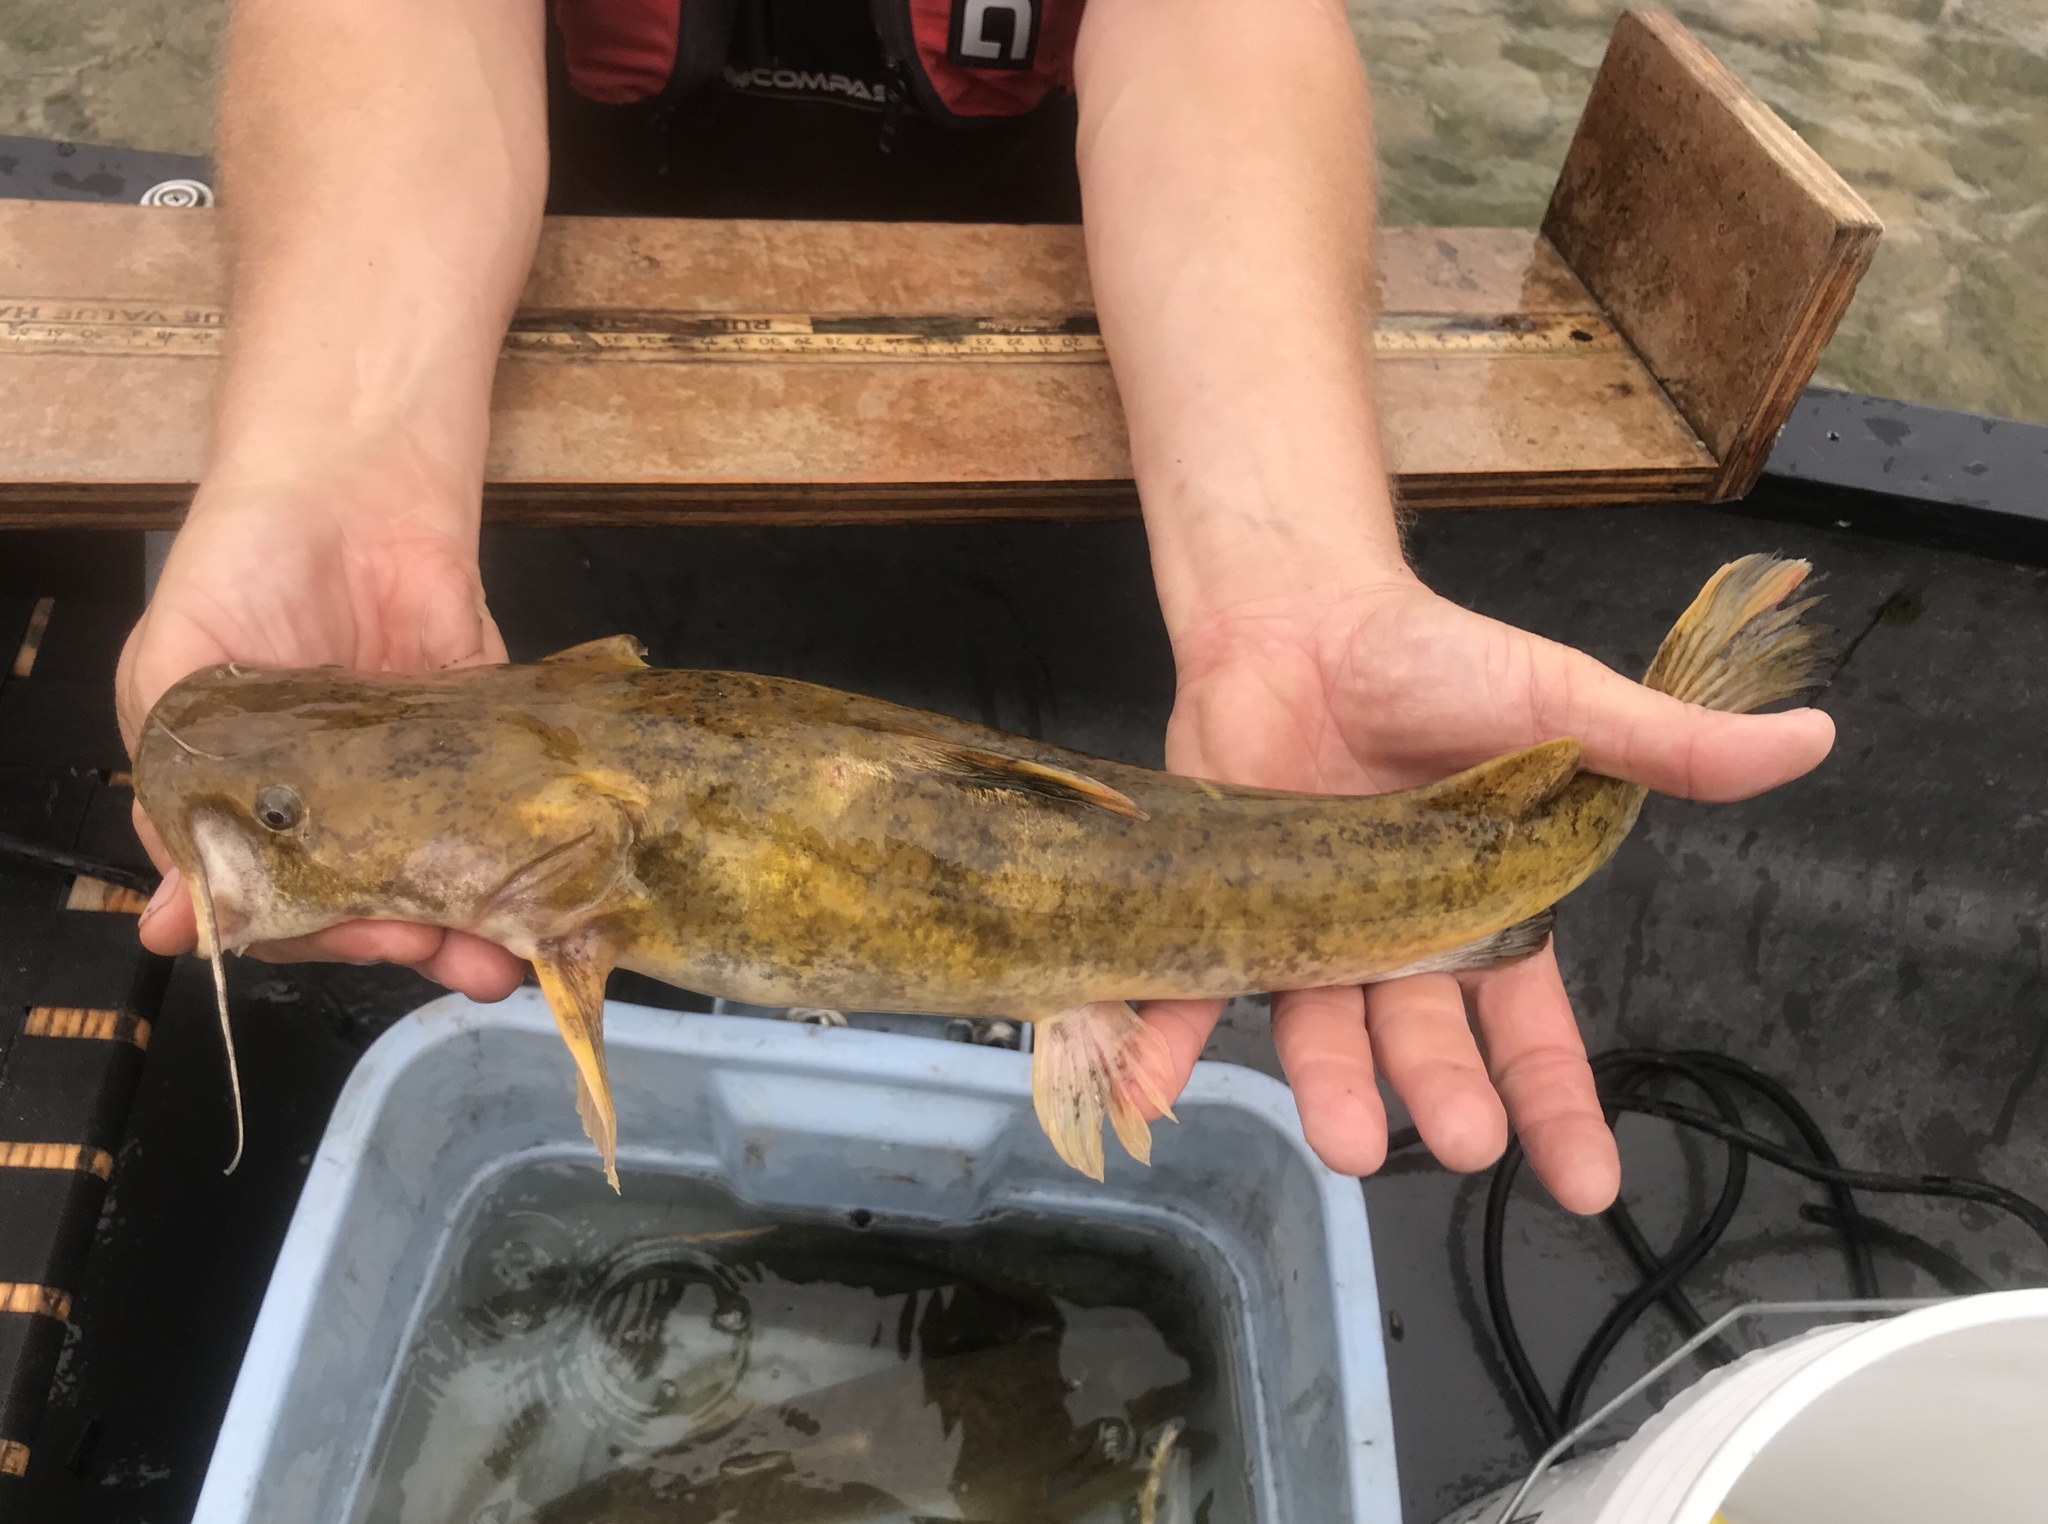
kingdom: Animalia
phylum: Chordata
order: Siluriformes
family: Ictaluridae
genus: Pylodictis
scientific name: Pylodictis olivaris
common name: Flathead catfish
